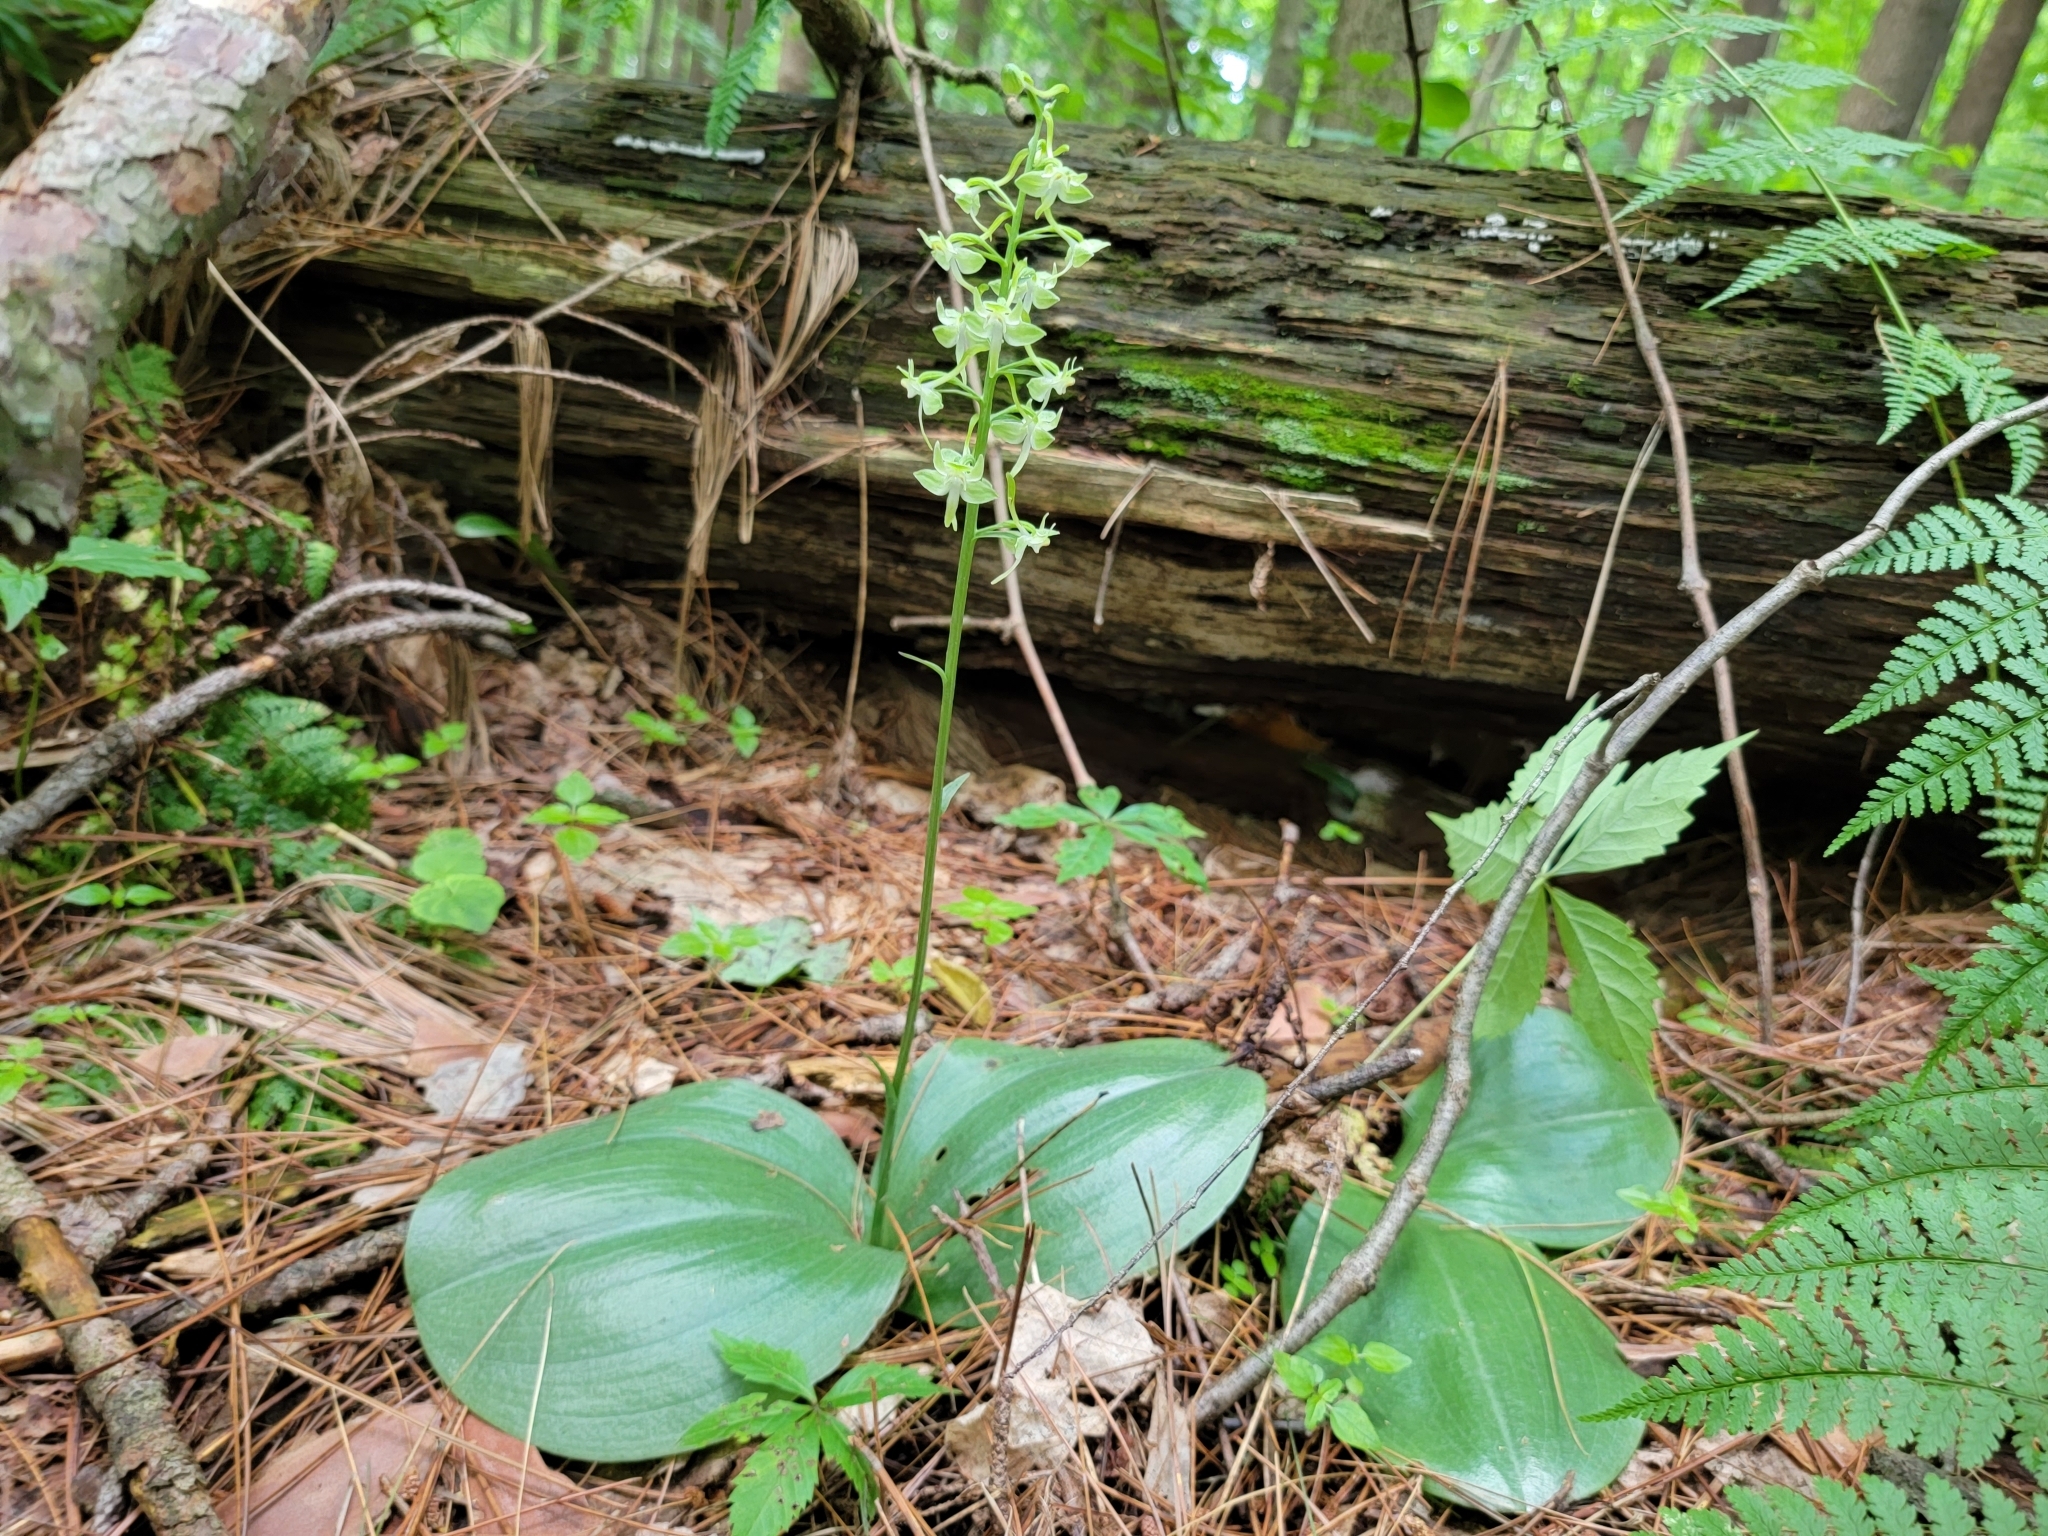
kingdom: Plantae
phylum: Tracheophyta
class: Liliopsida
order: Asparagales
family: Orchidaceae
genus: Platanthera
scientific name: Platanthera orbiculata
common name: Large round-leaved orchid
